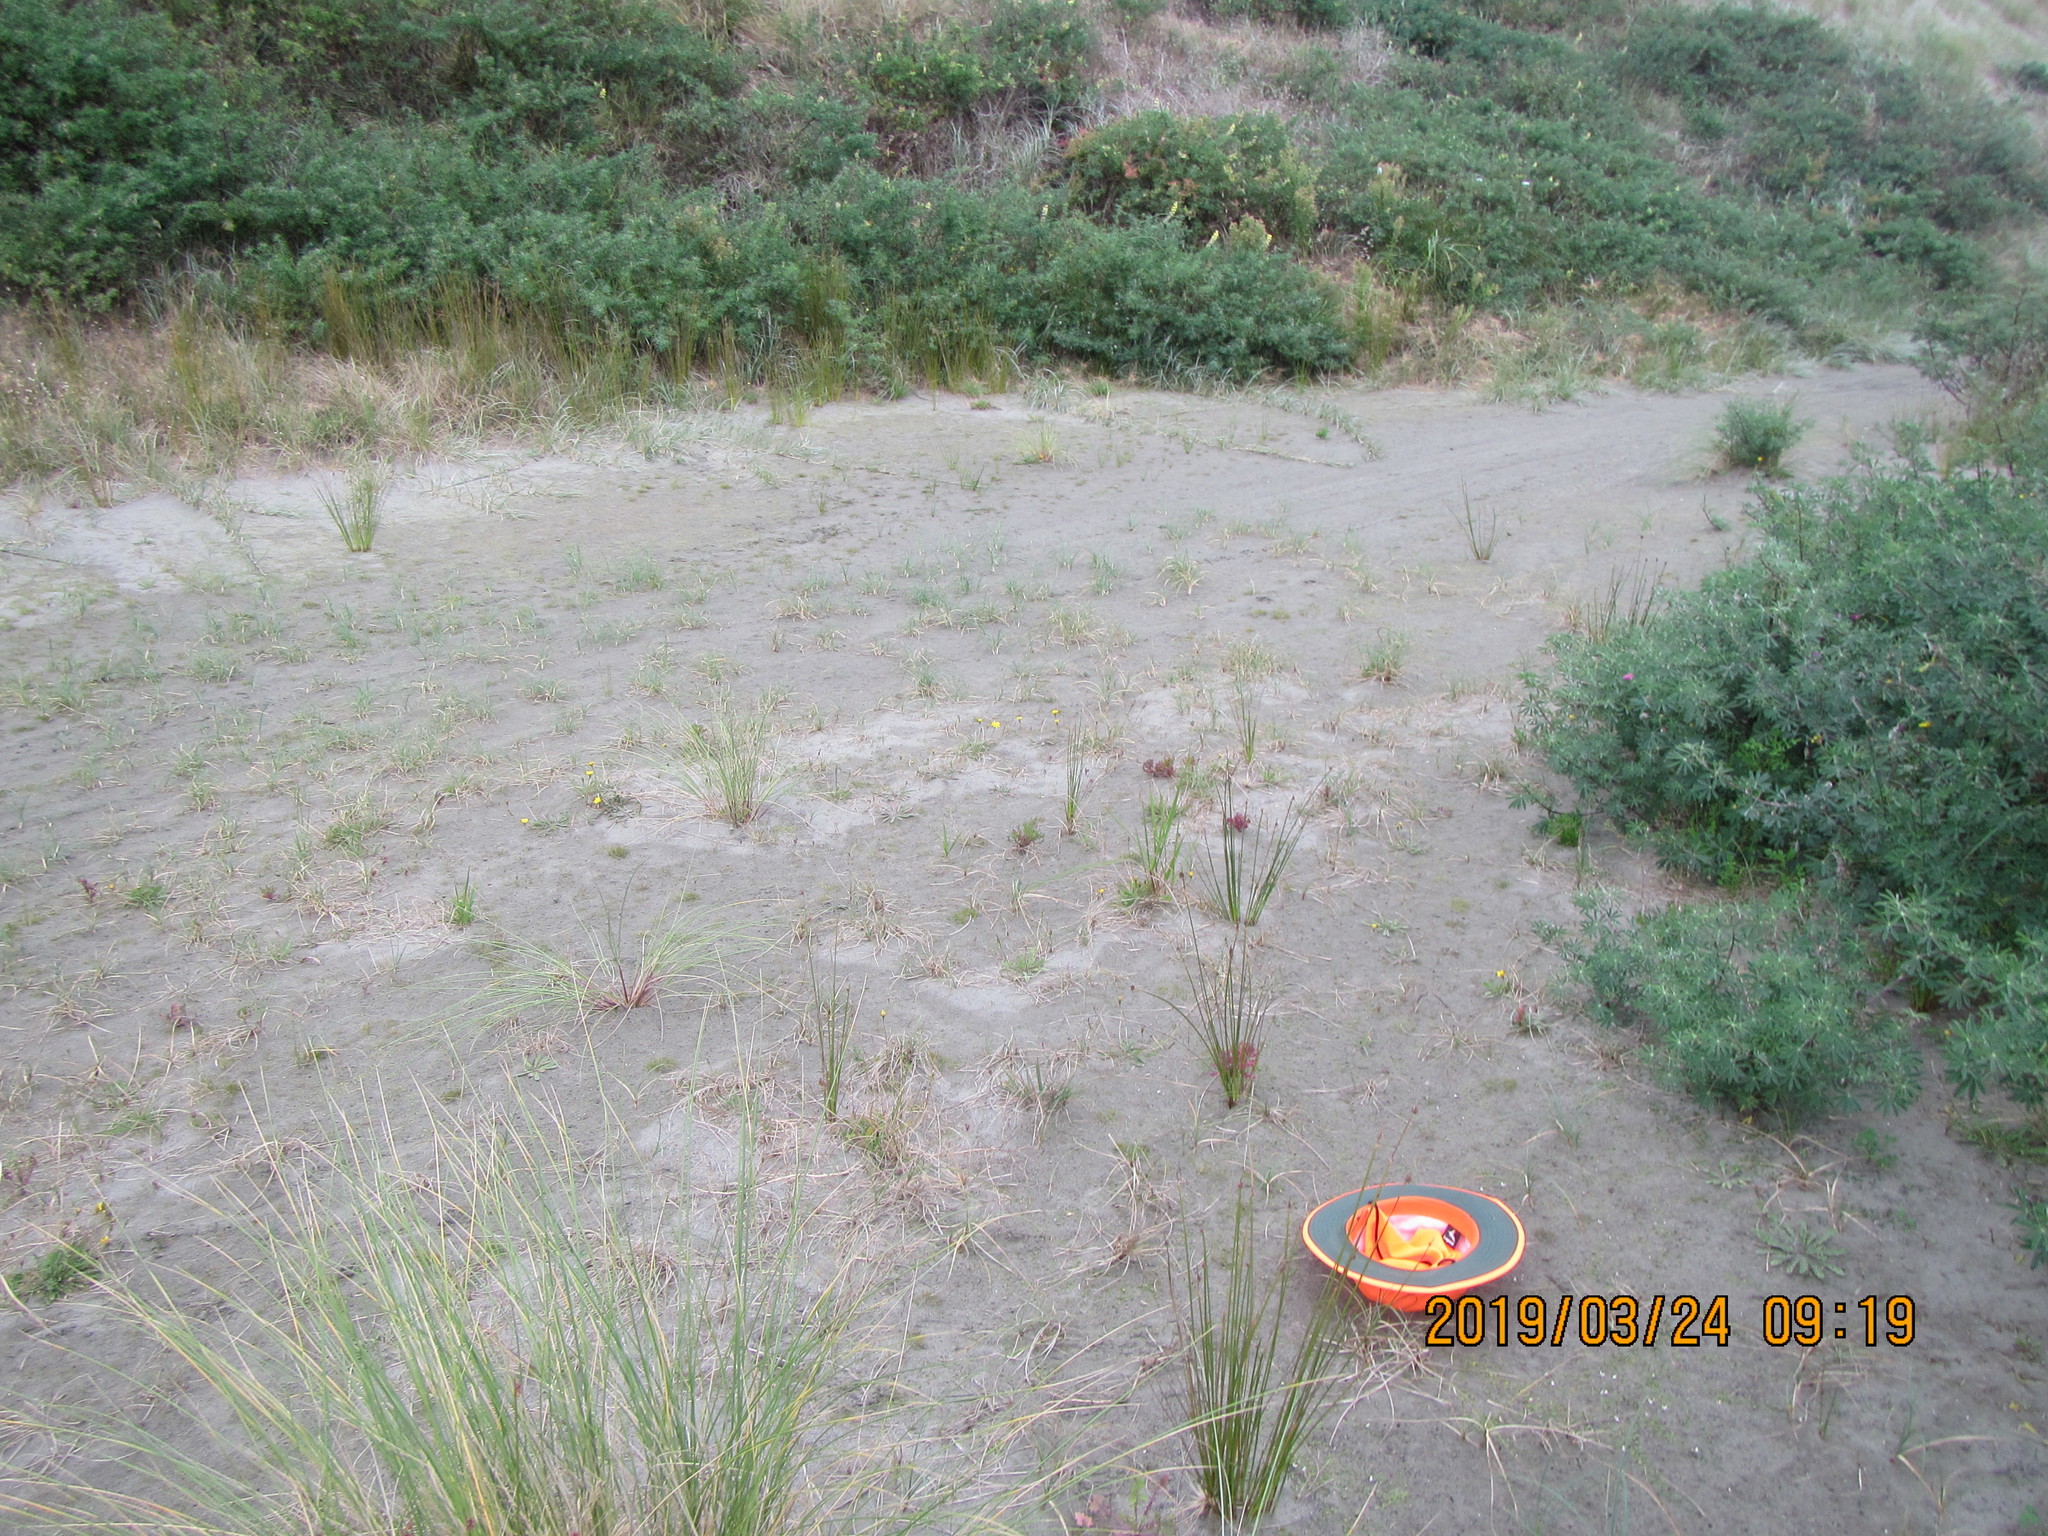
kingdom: Plantae
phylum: Tracheophyta
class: Magnoliopsida
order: Asterales
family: Goodeniaceae
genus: Goodenia
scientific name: Goodenia heenanii
